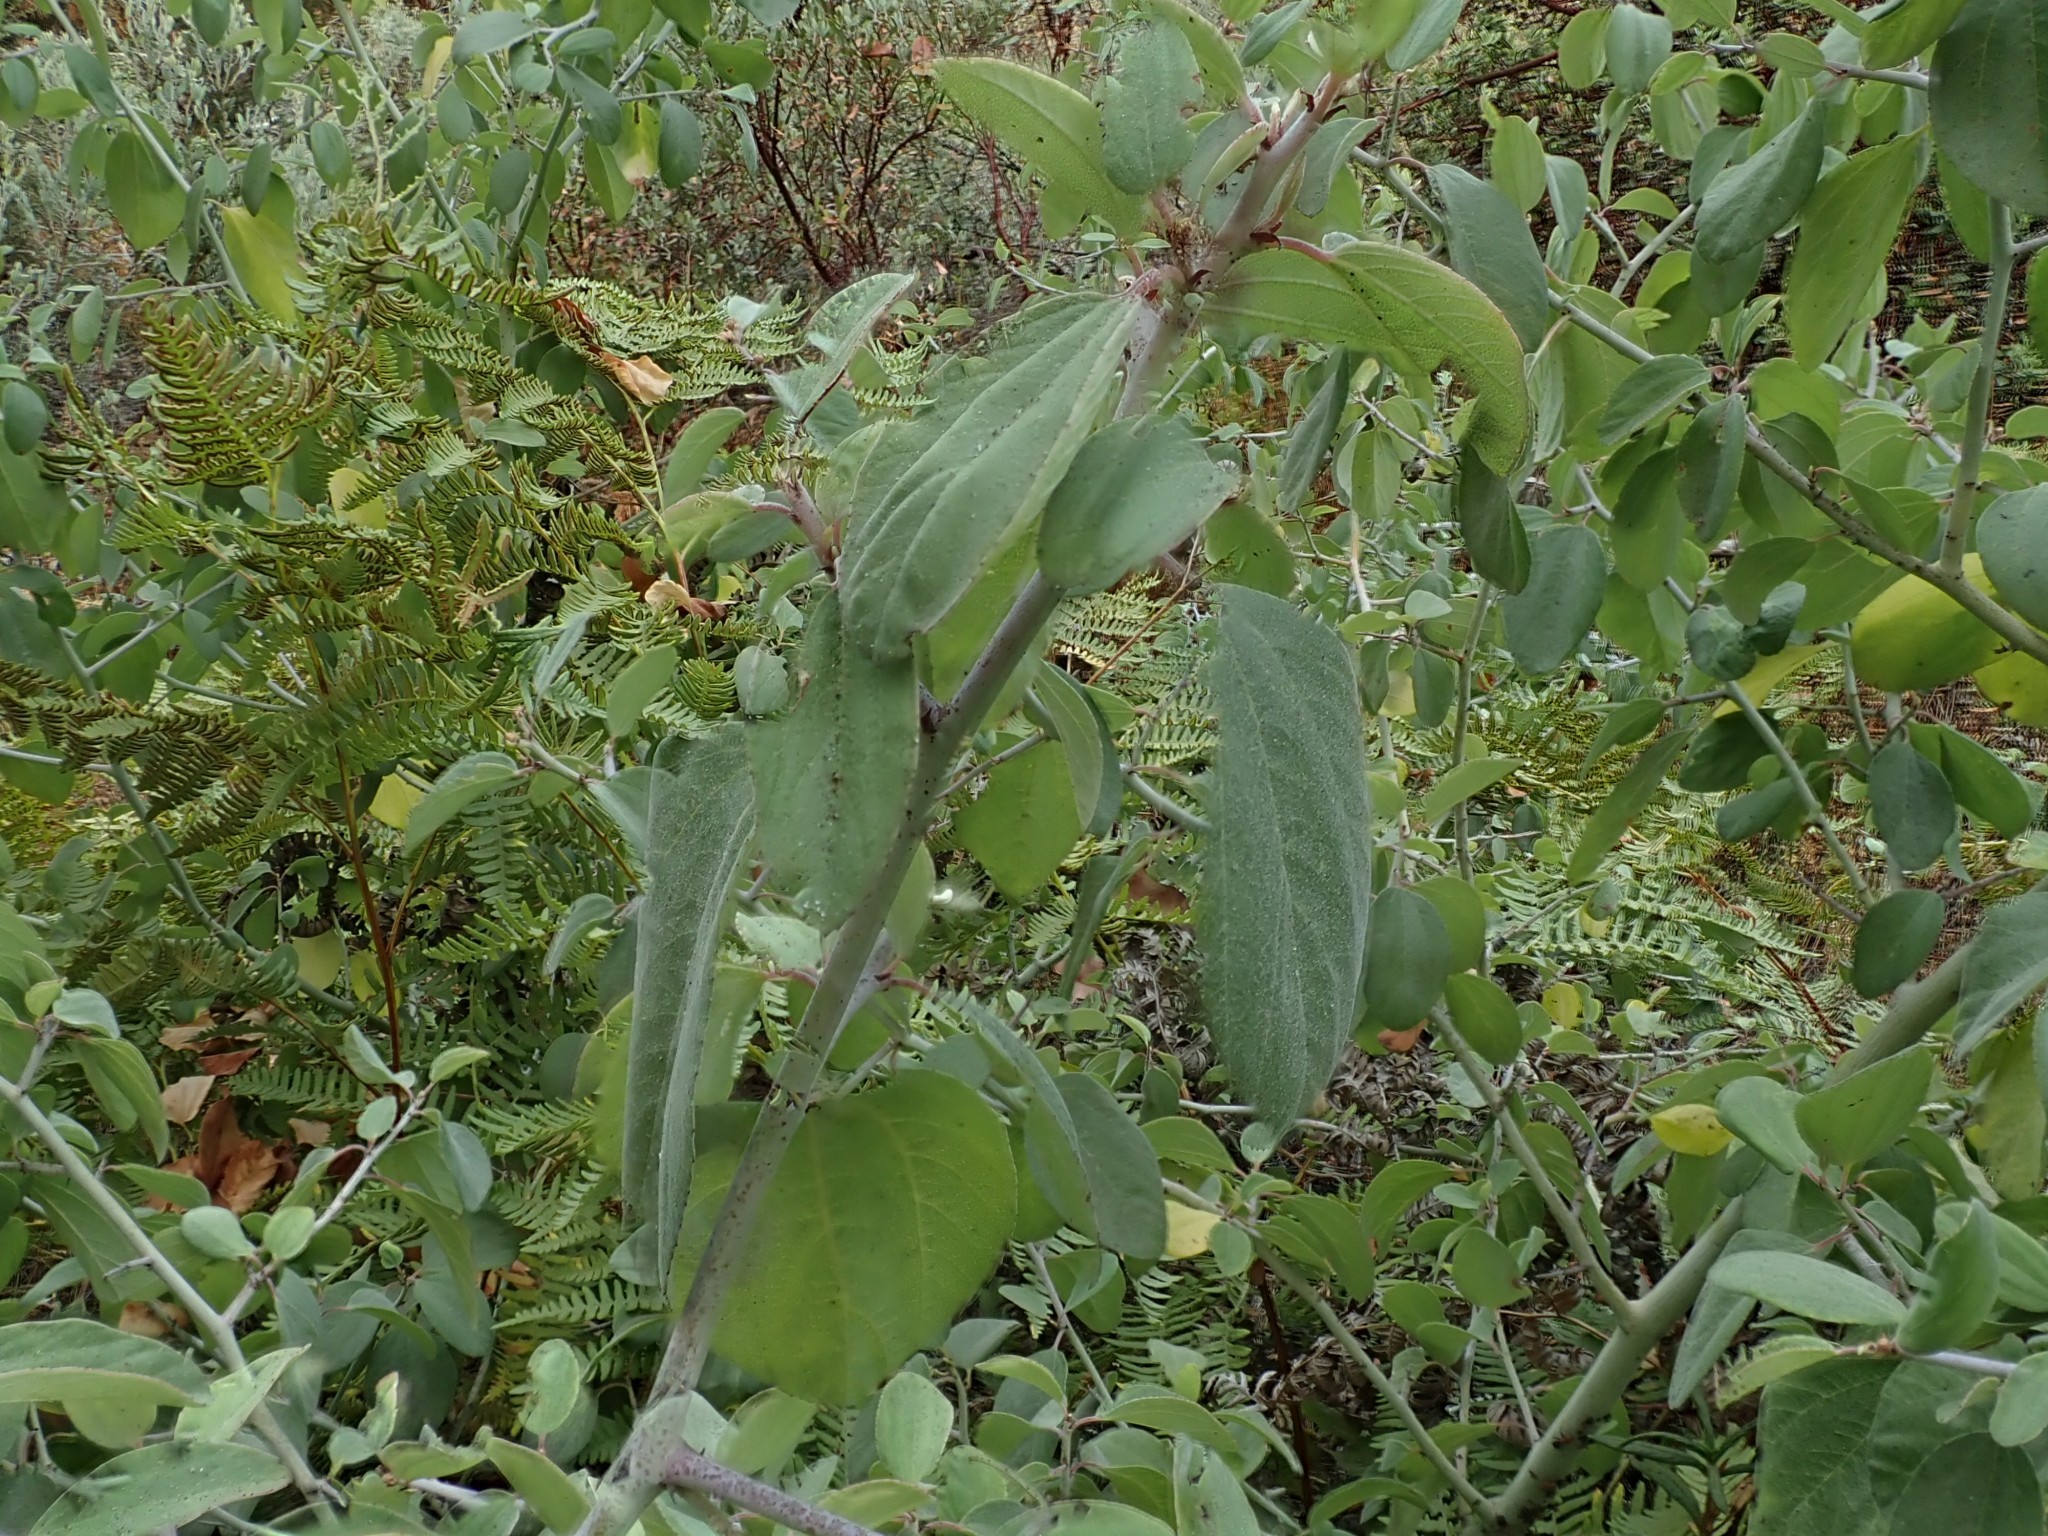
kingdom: Plantae
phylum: Tracheophyta
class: Magnoliopsida
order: Rosales
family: Rhamnaceae
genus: Ceanothus
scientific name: Ceanothus incanus
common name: Coast whitethorn
